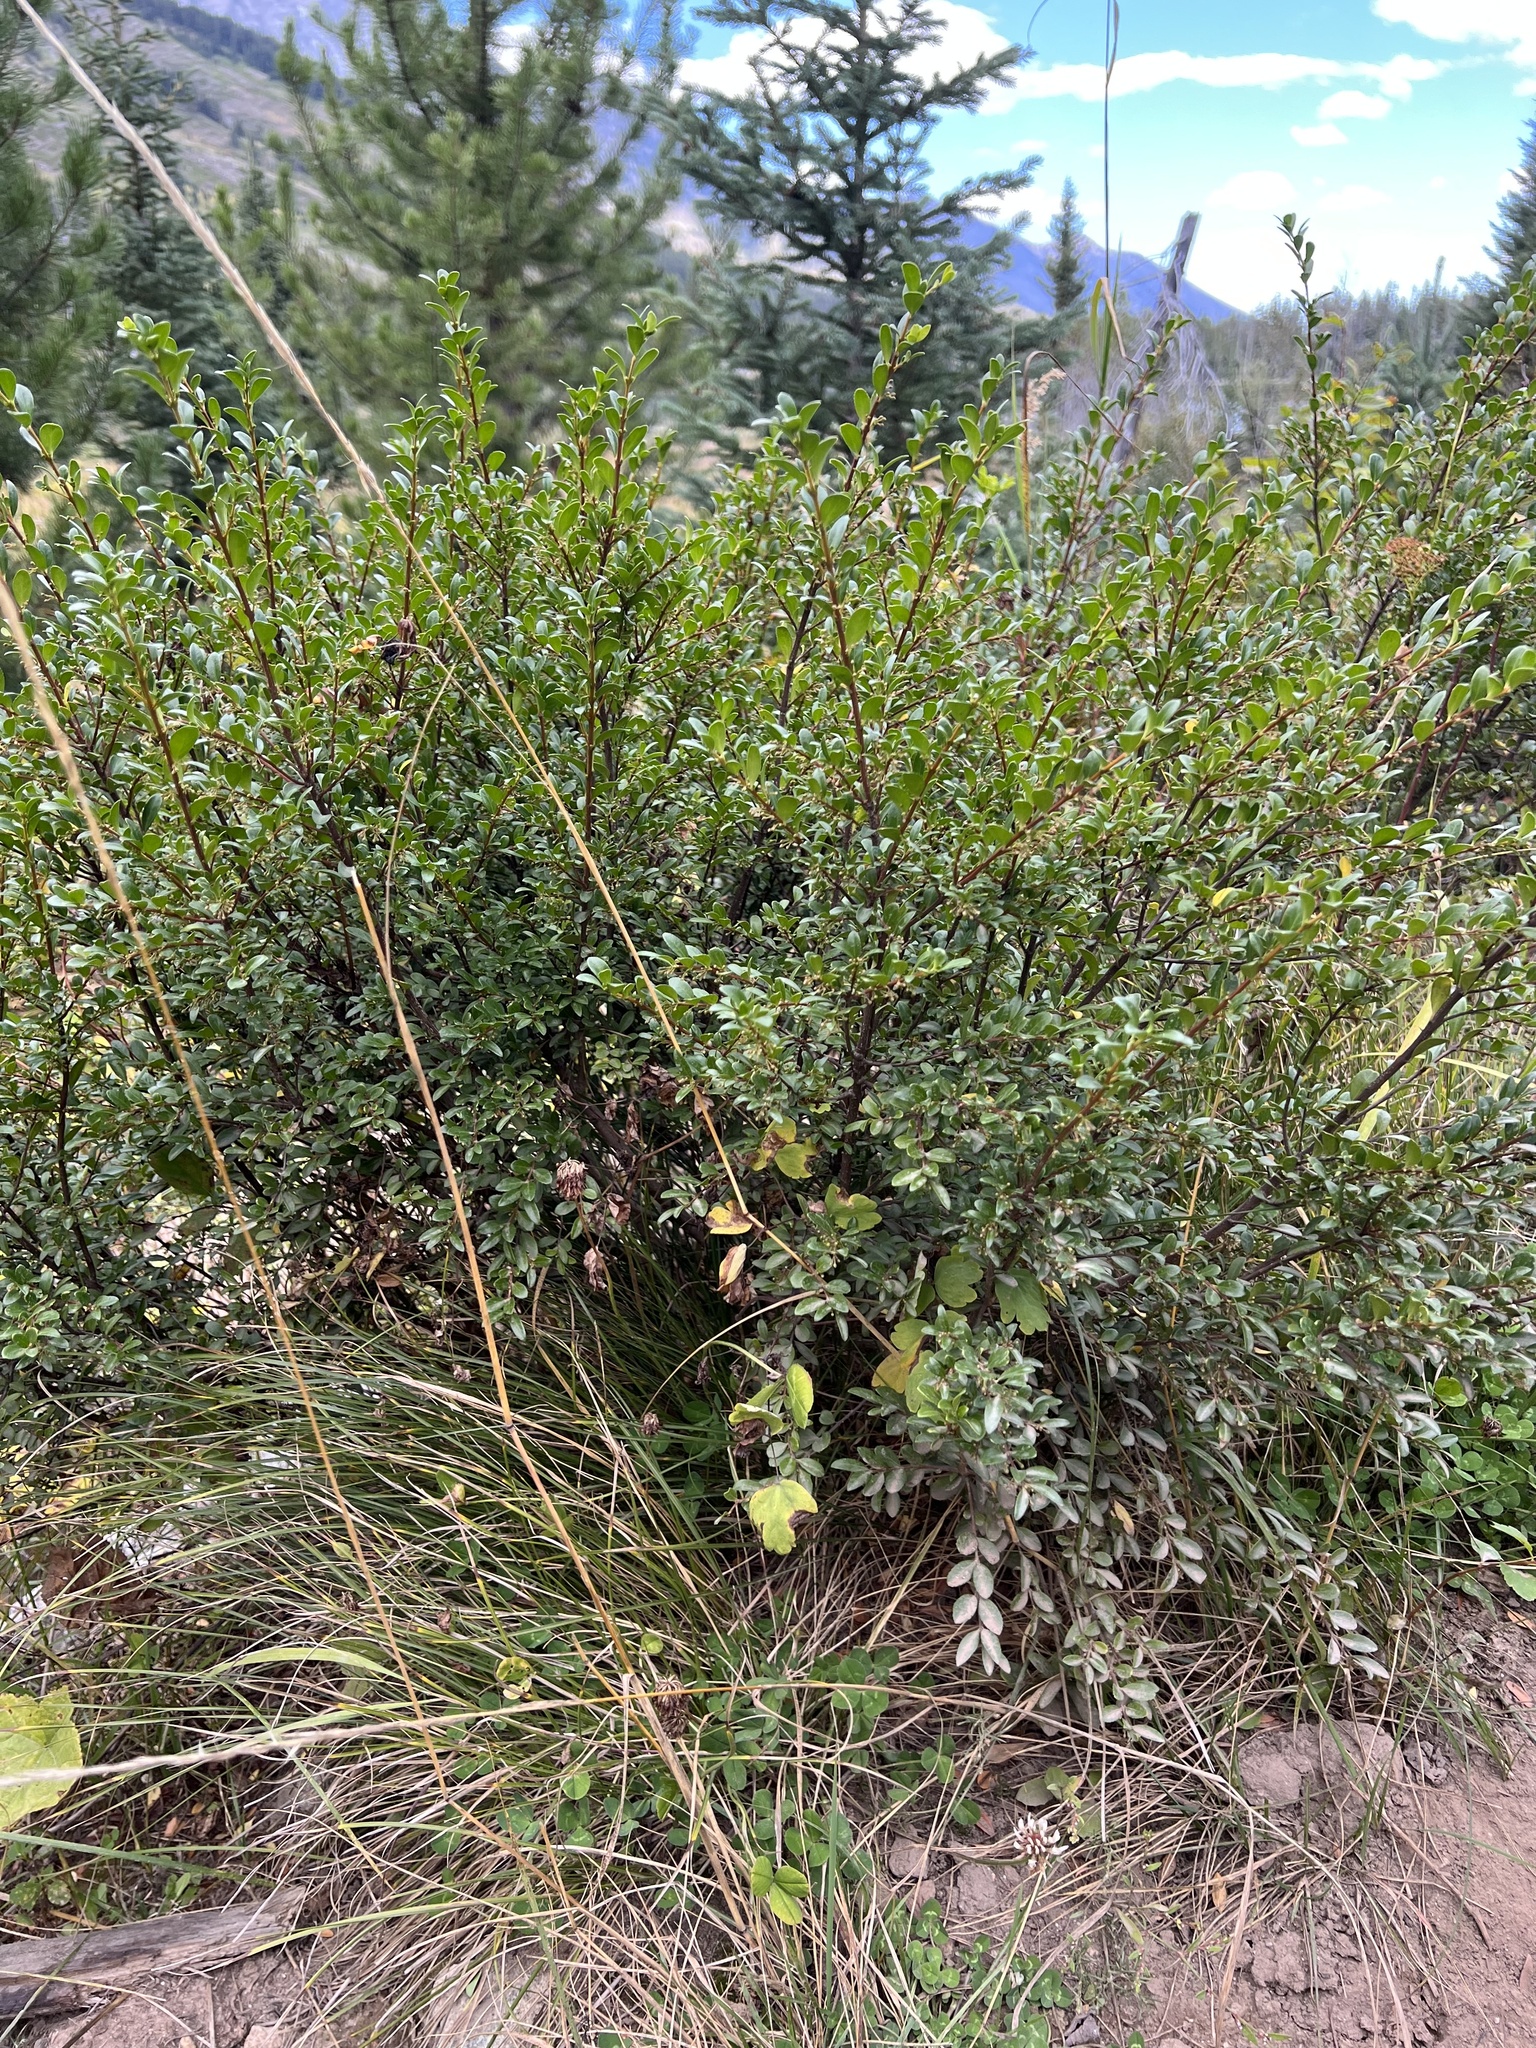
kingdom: Plantae
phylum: Tracheophyta
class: Magnoliopsida
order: Celastrales
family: Celastraceae
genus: Paxistima
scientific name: Paxistima myrsinites
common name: Mountain-lover
